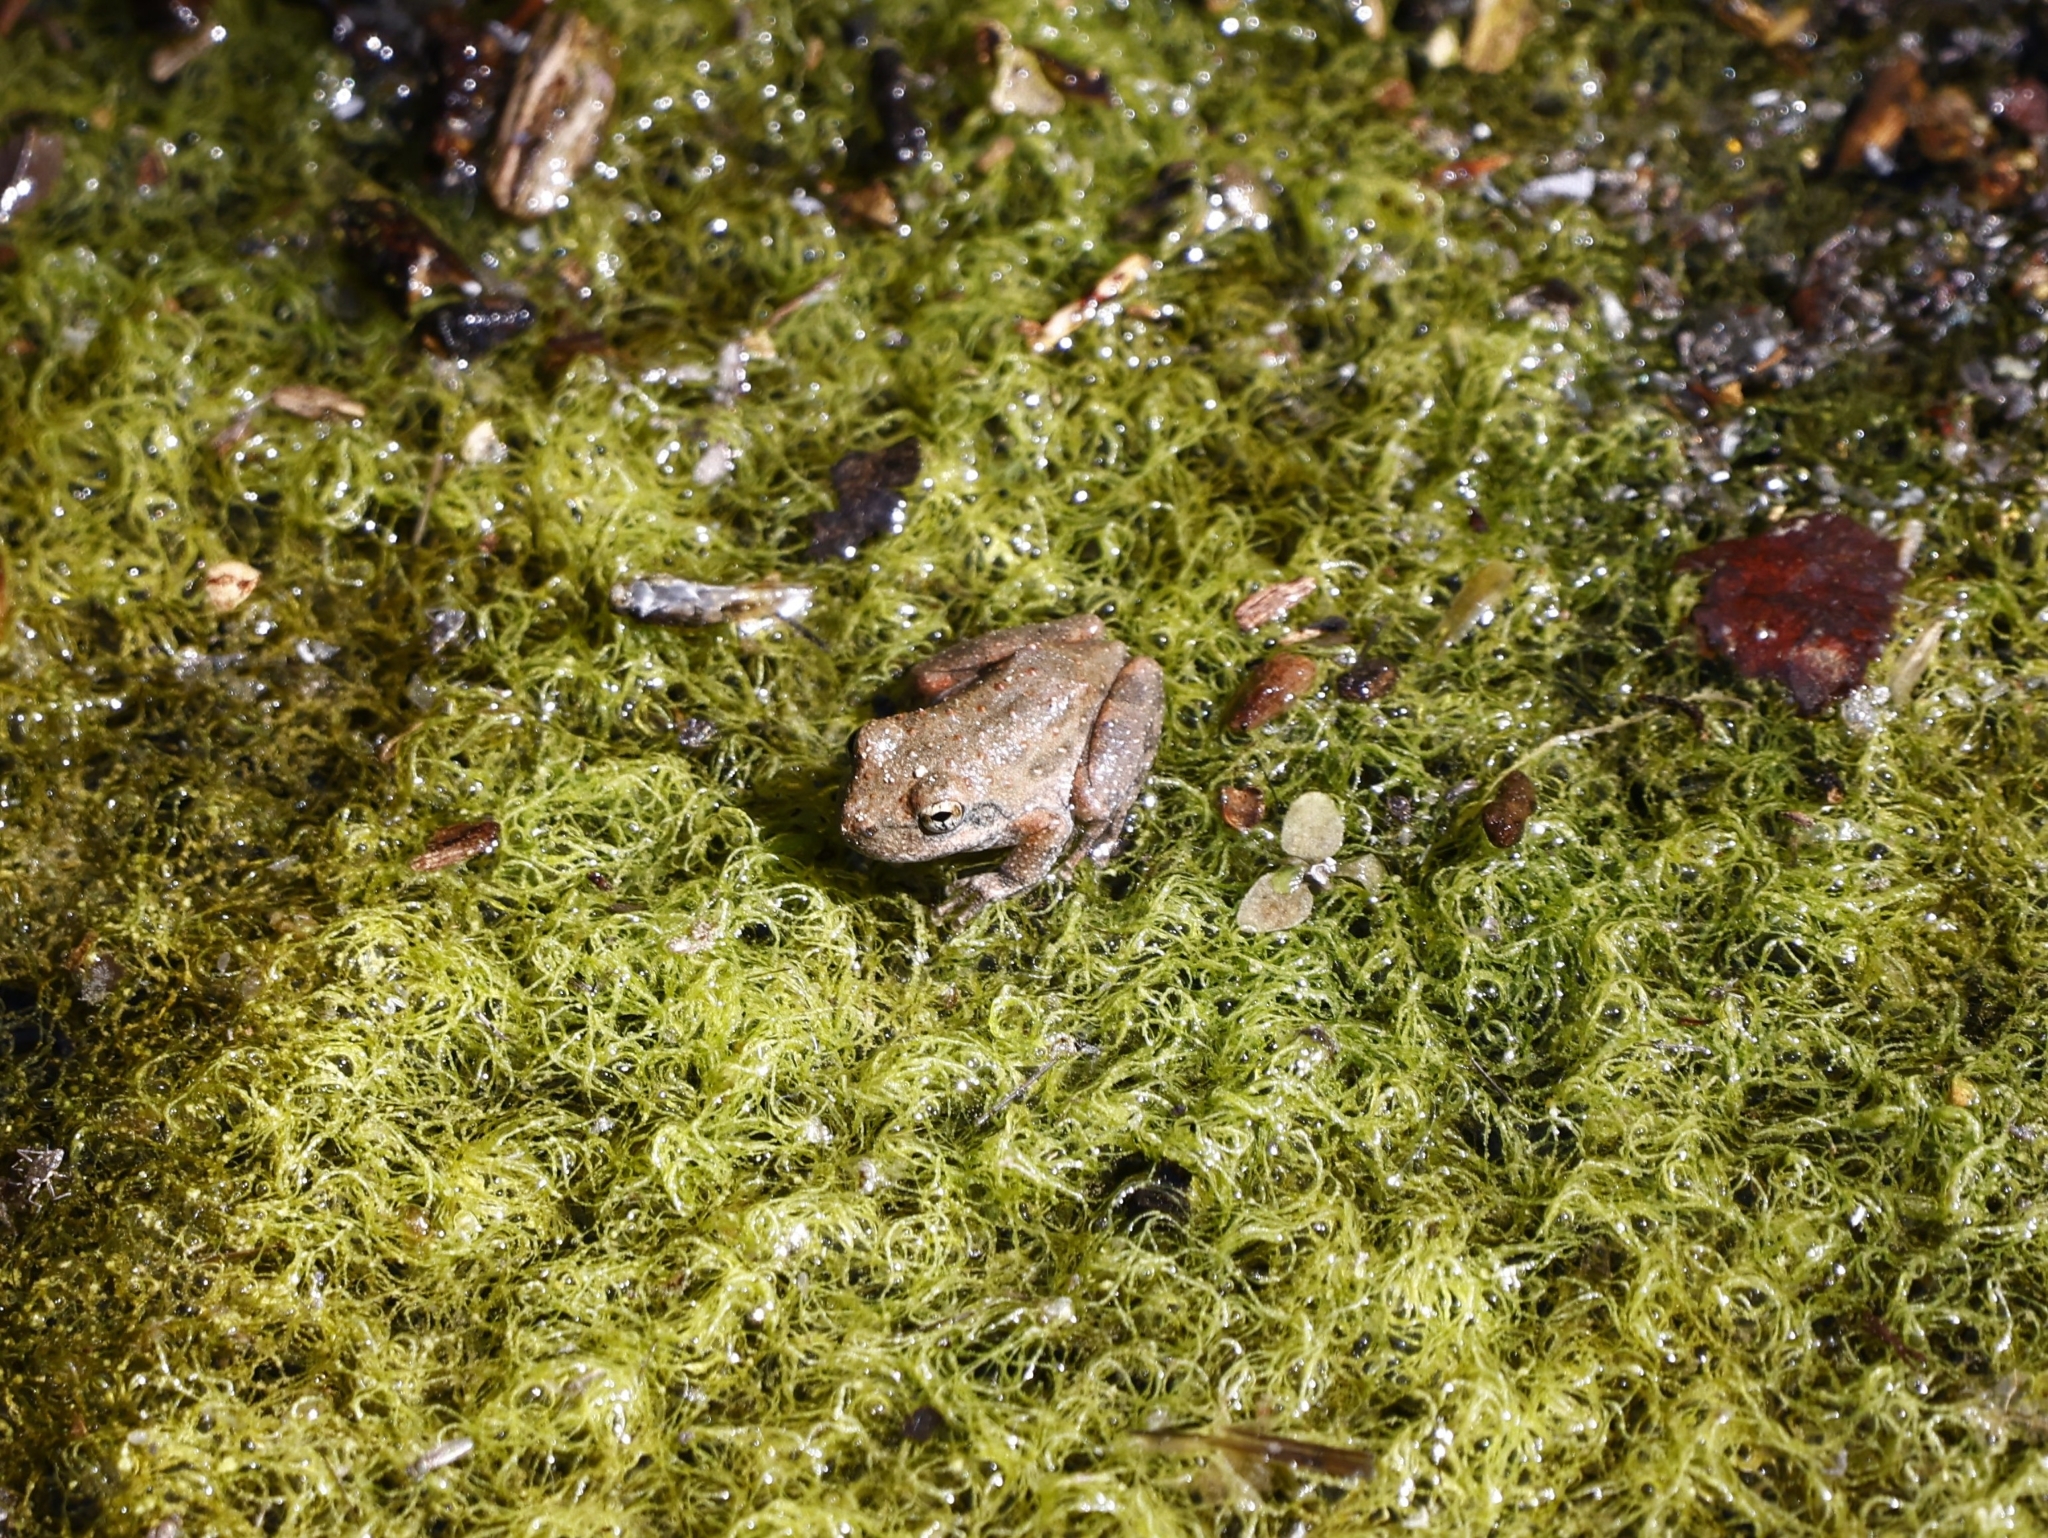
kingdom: Animalia
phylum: Chordata
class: Amphibia
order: Anura
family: Hylidae
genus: Pseudacris
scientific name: Pseudacris cadaverina
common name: California chorus frog
